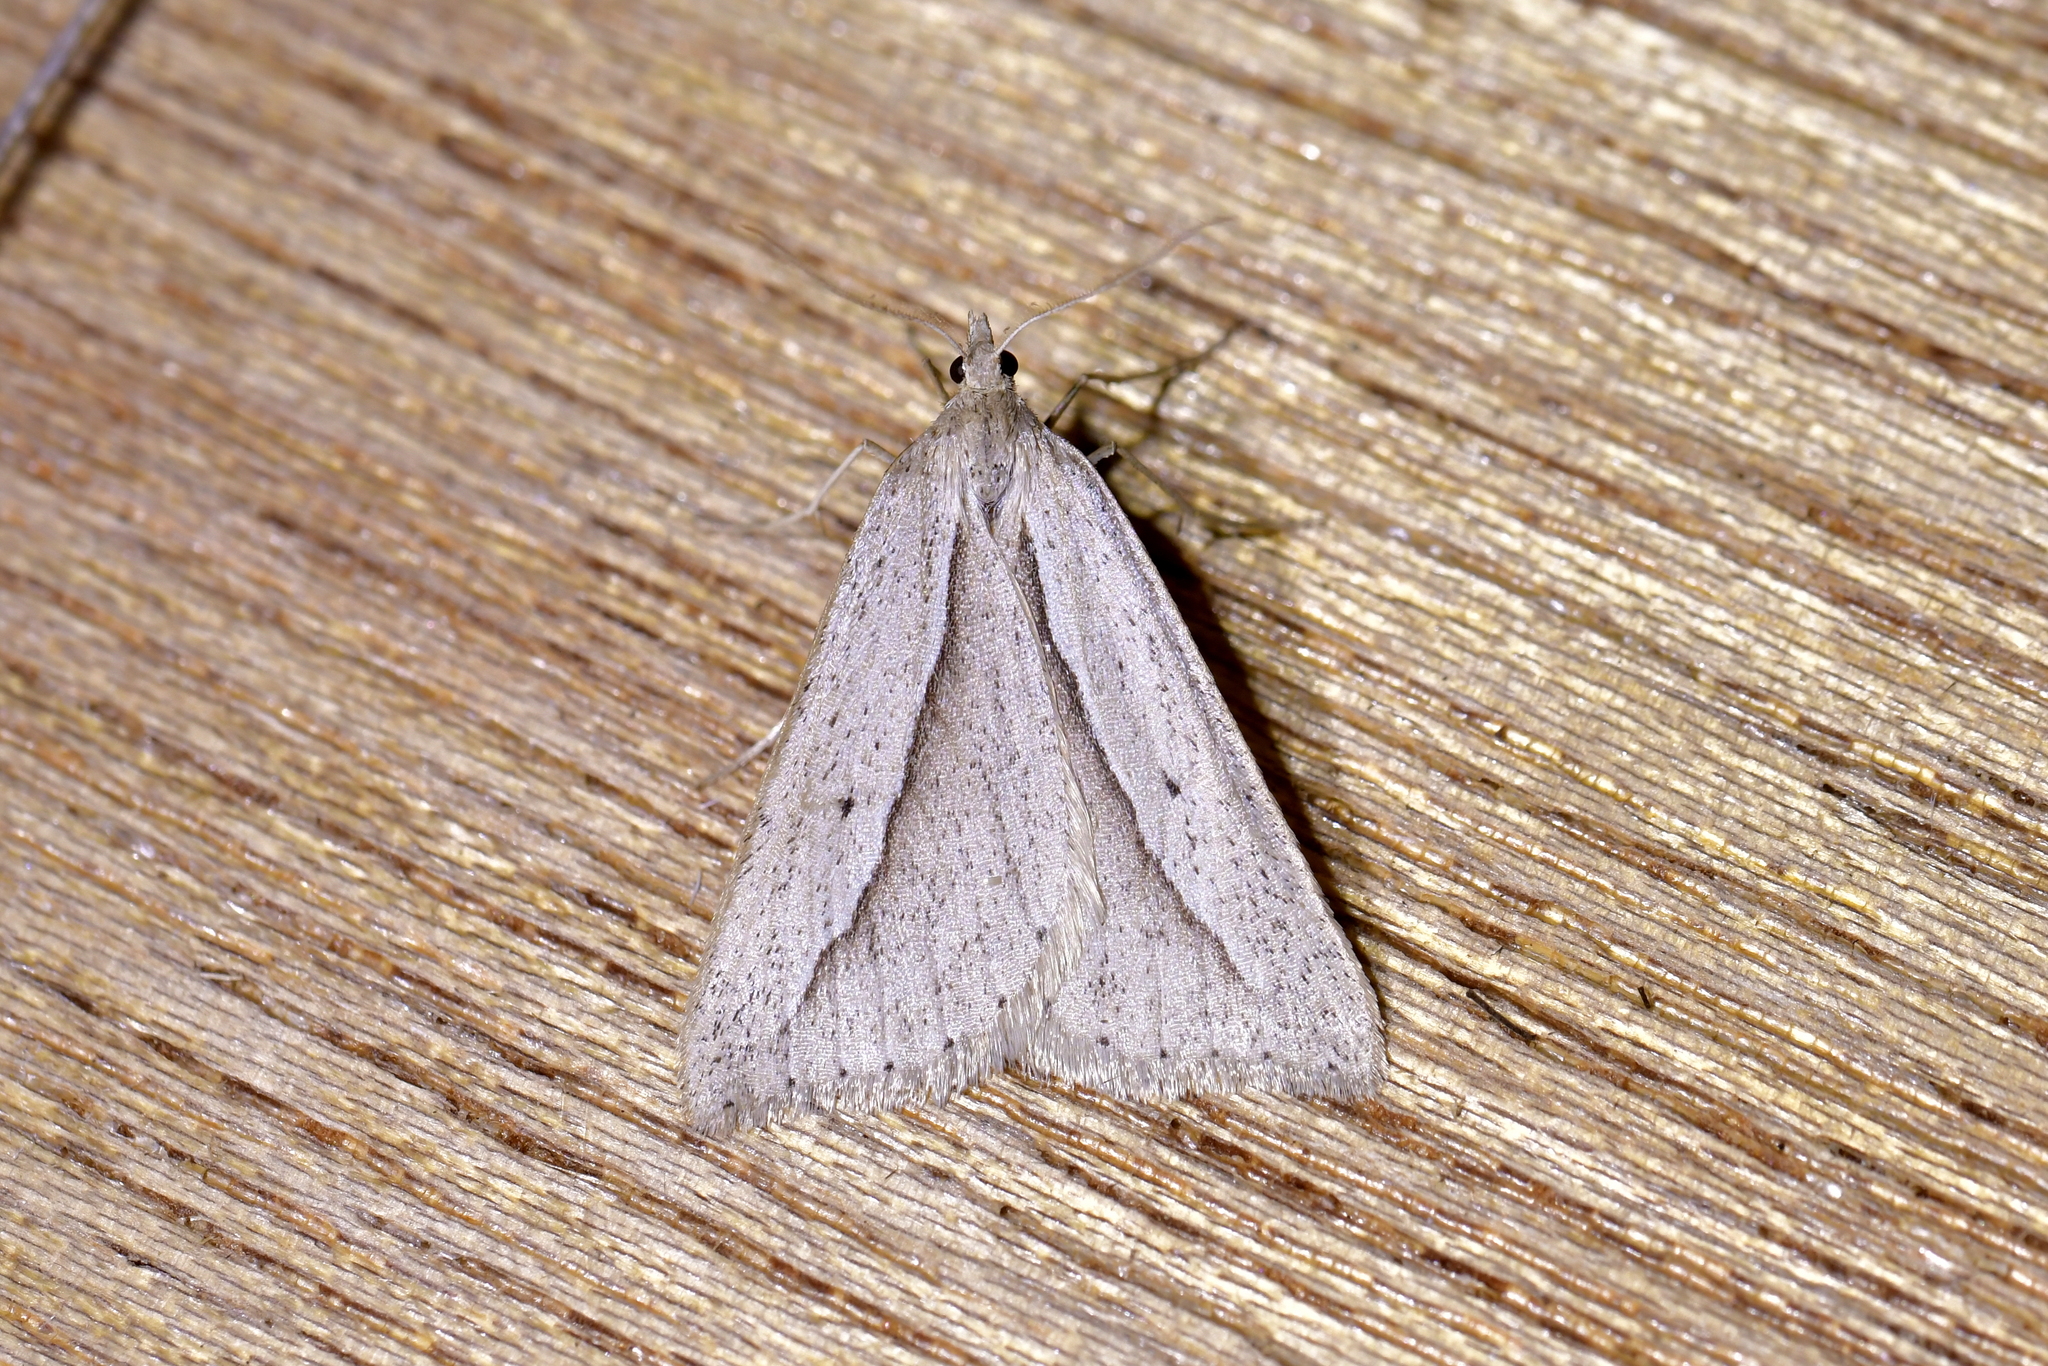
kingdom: Animalia
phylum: Arthropoda
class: Insecta
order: Lepidoptera
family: Geometridae
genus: Theoxena
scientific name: Theoxena scissaria
